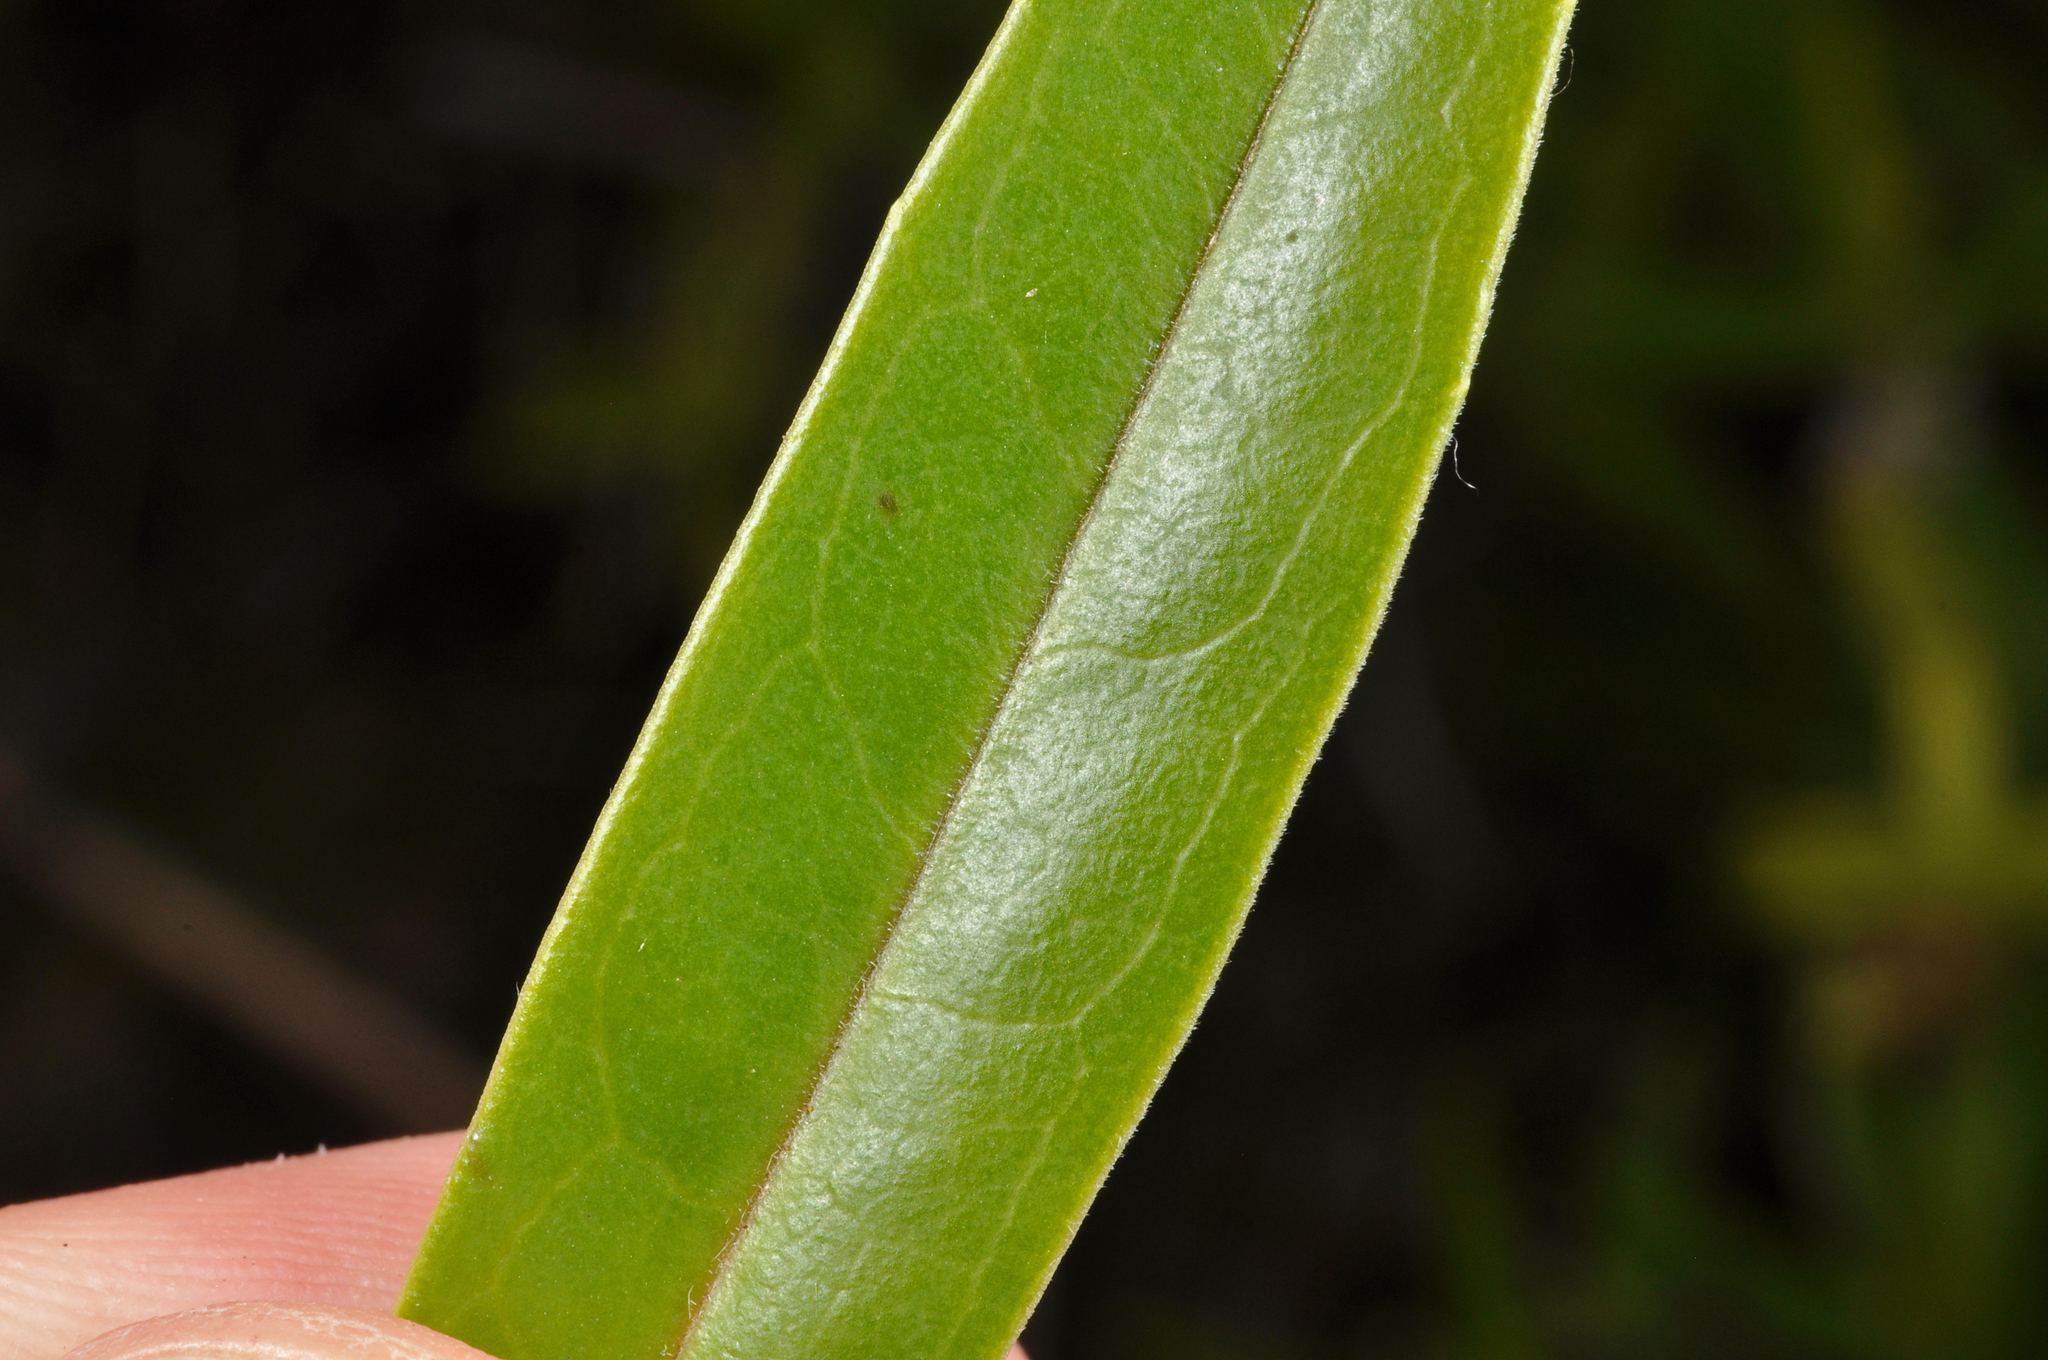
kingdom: Plantae
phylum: Tracheophyta
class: Magnoliopsida
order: Lamiales
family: Plantaginaceae
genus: Veronica
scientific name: Veronica stricta
